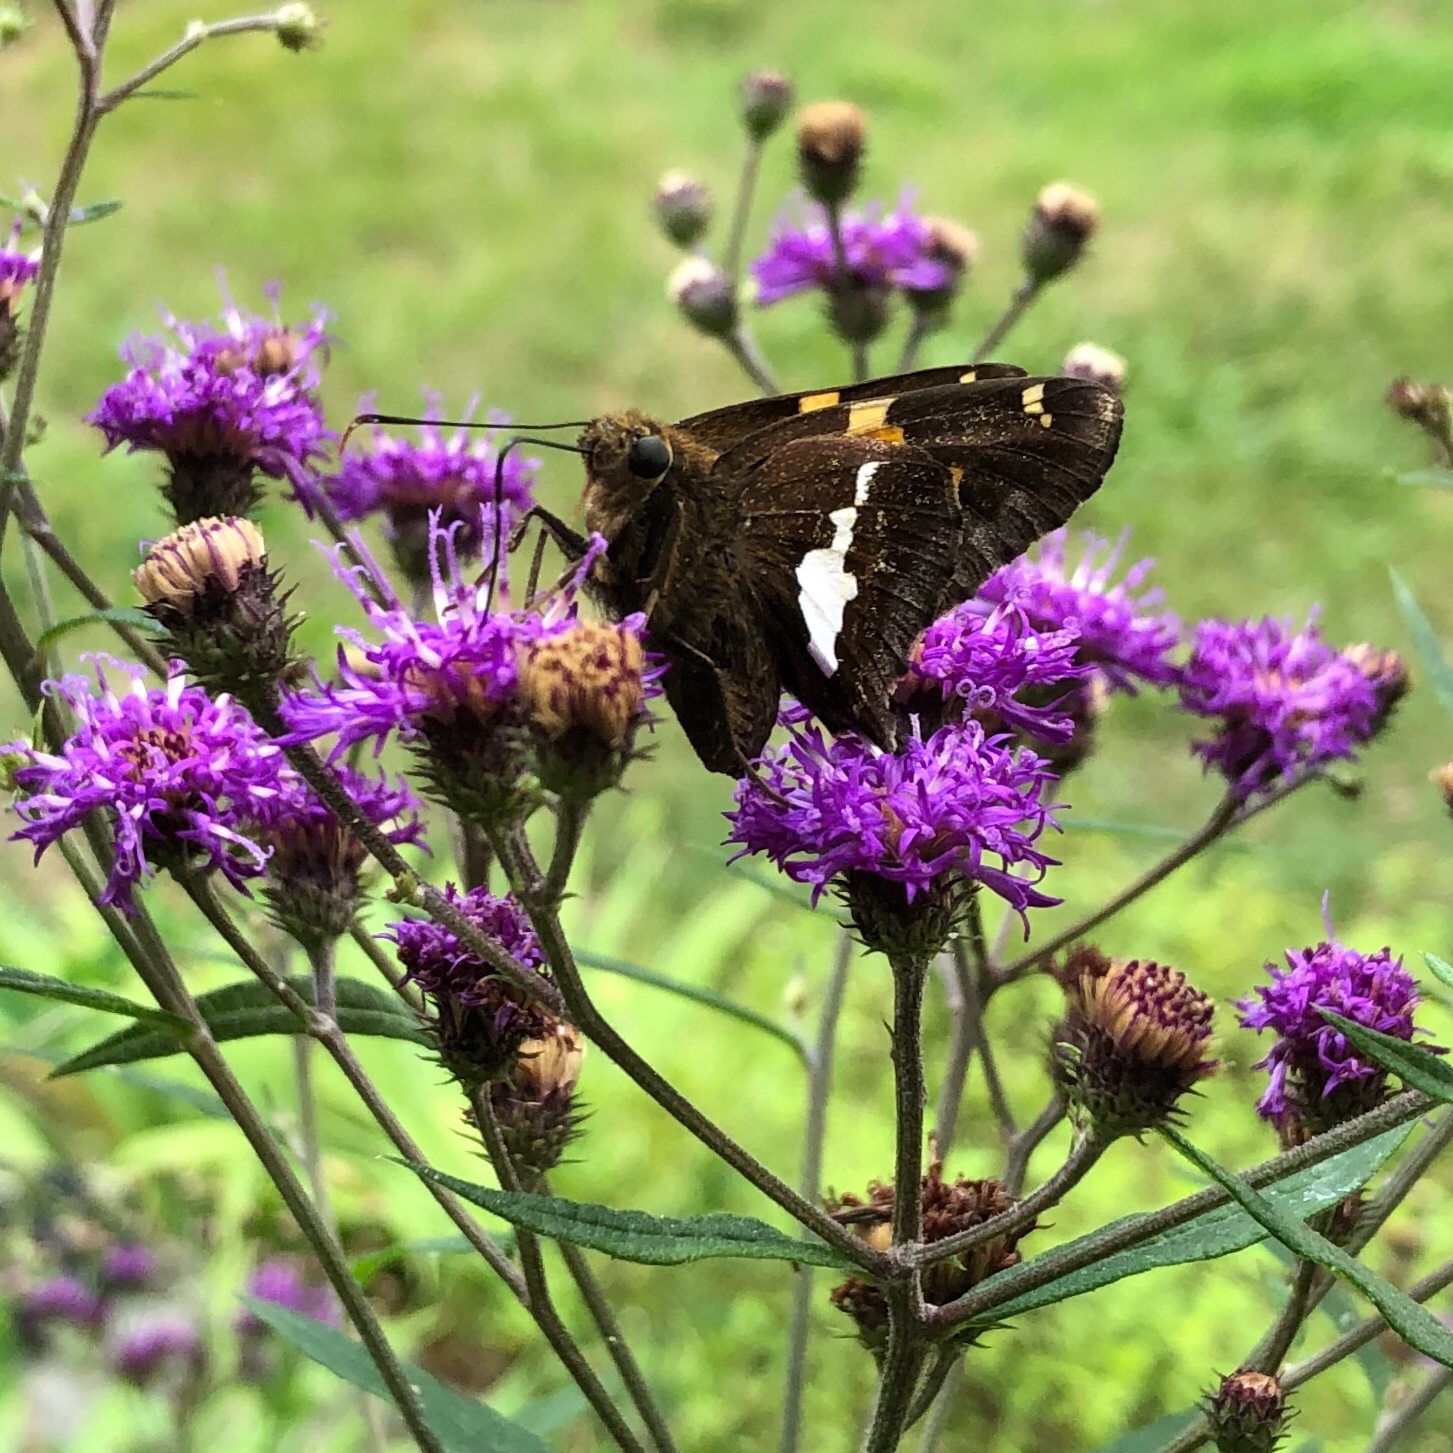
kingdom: Animalia
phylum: Arthropoda
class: Insecta
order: Lepidoptera
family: Hesperiidae
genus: Epargyreus
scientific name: Epargyreus clarus
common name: Silver-spotted skipper
